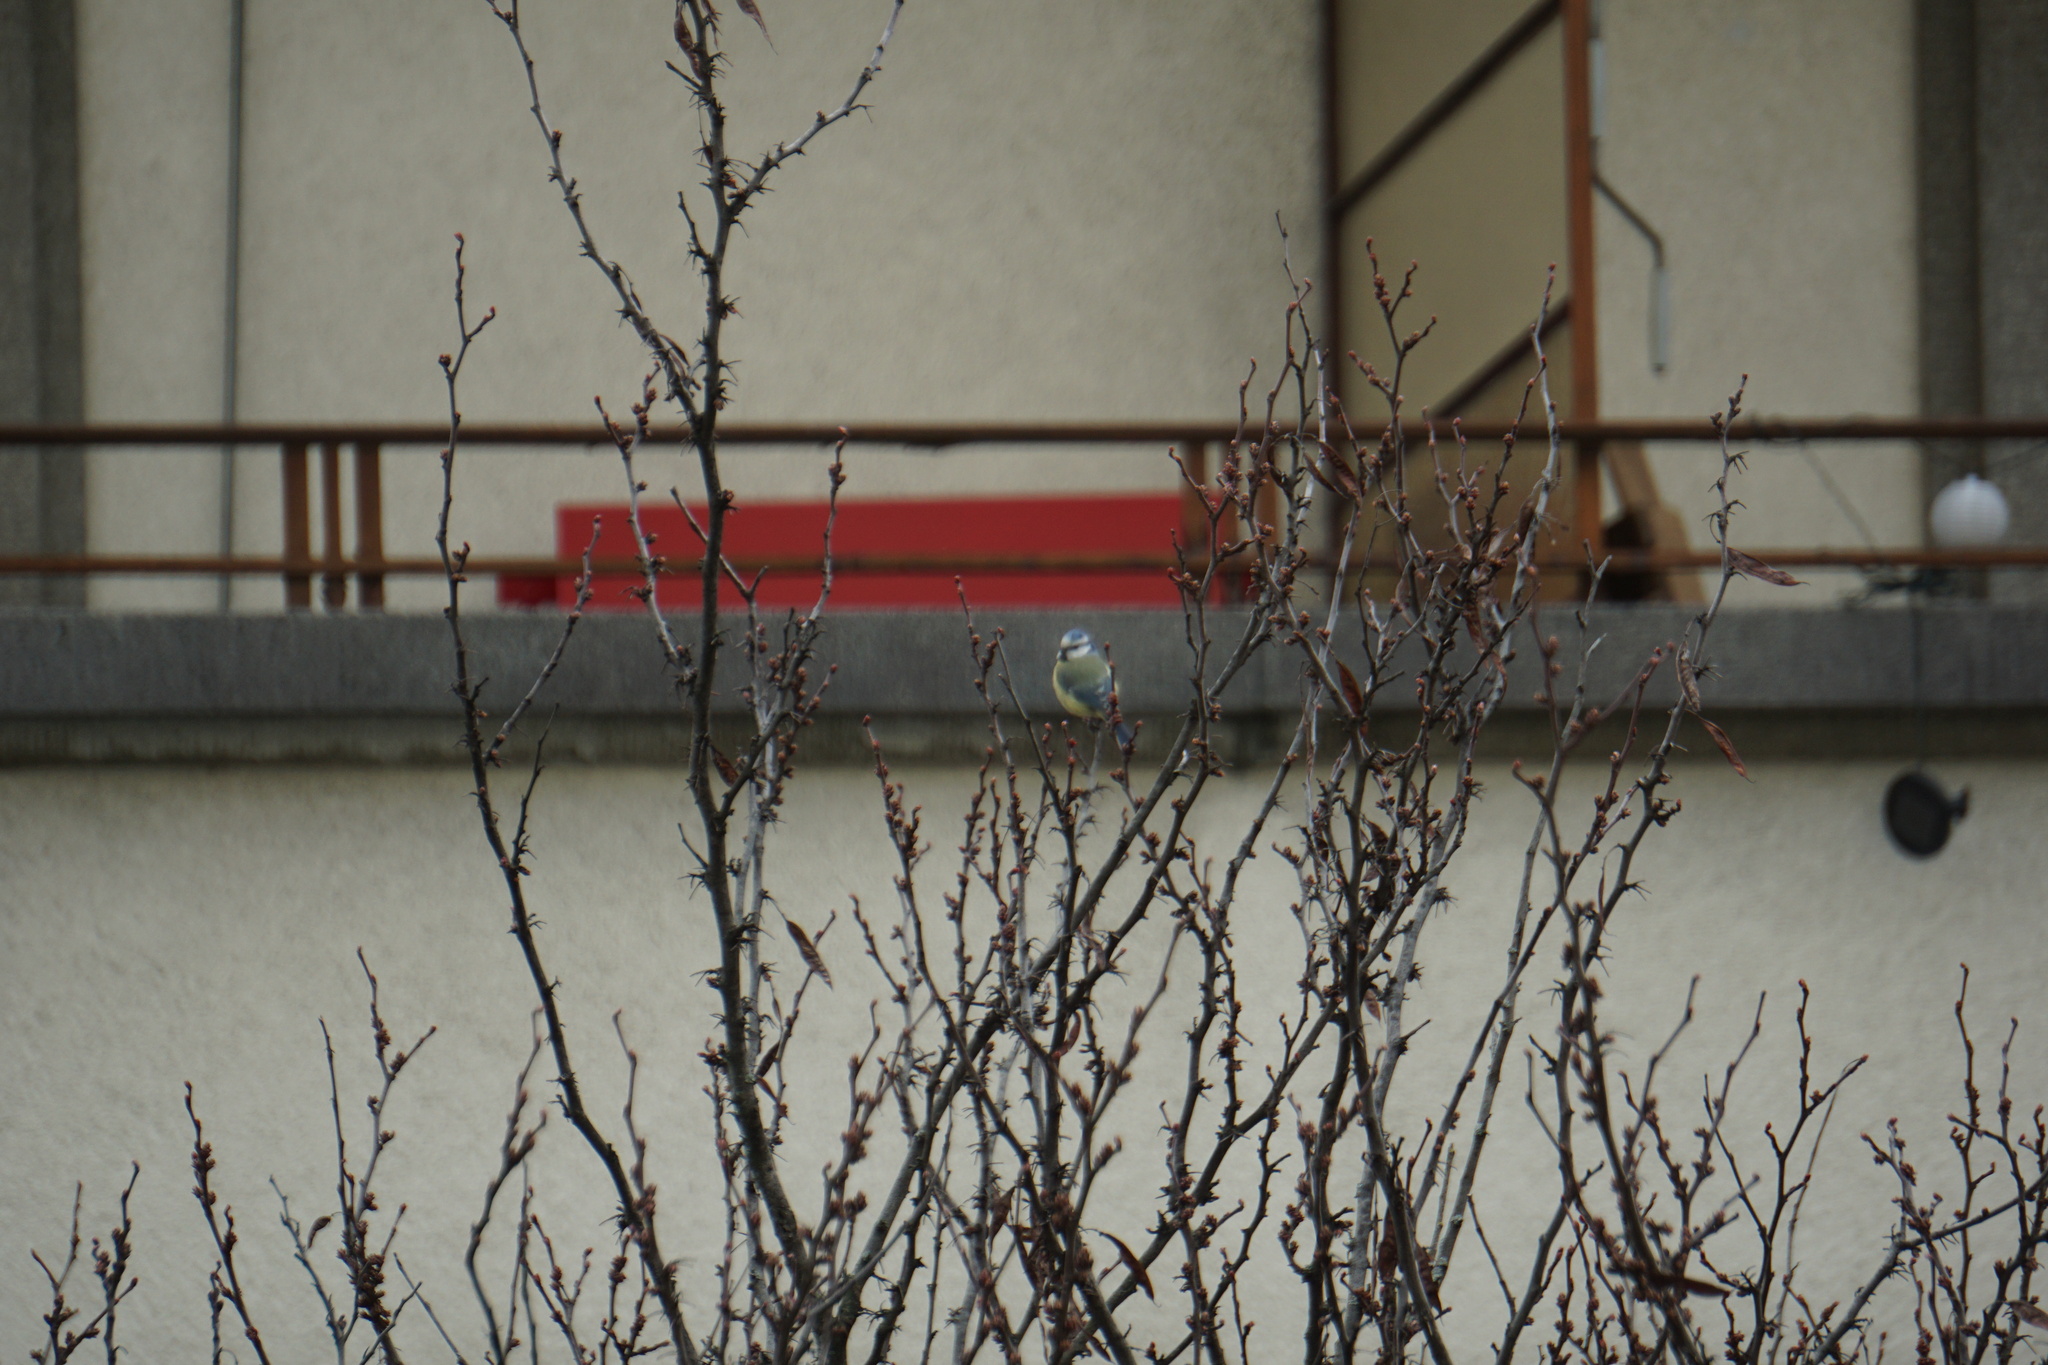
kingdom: Animalia
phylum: Chordata
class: Aves
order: Passeriformes
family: Paridae
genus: Cyanistes
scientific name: Cyanistes caeruleus
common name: Eurasian blue tit
